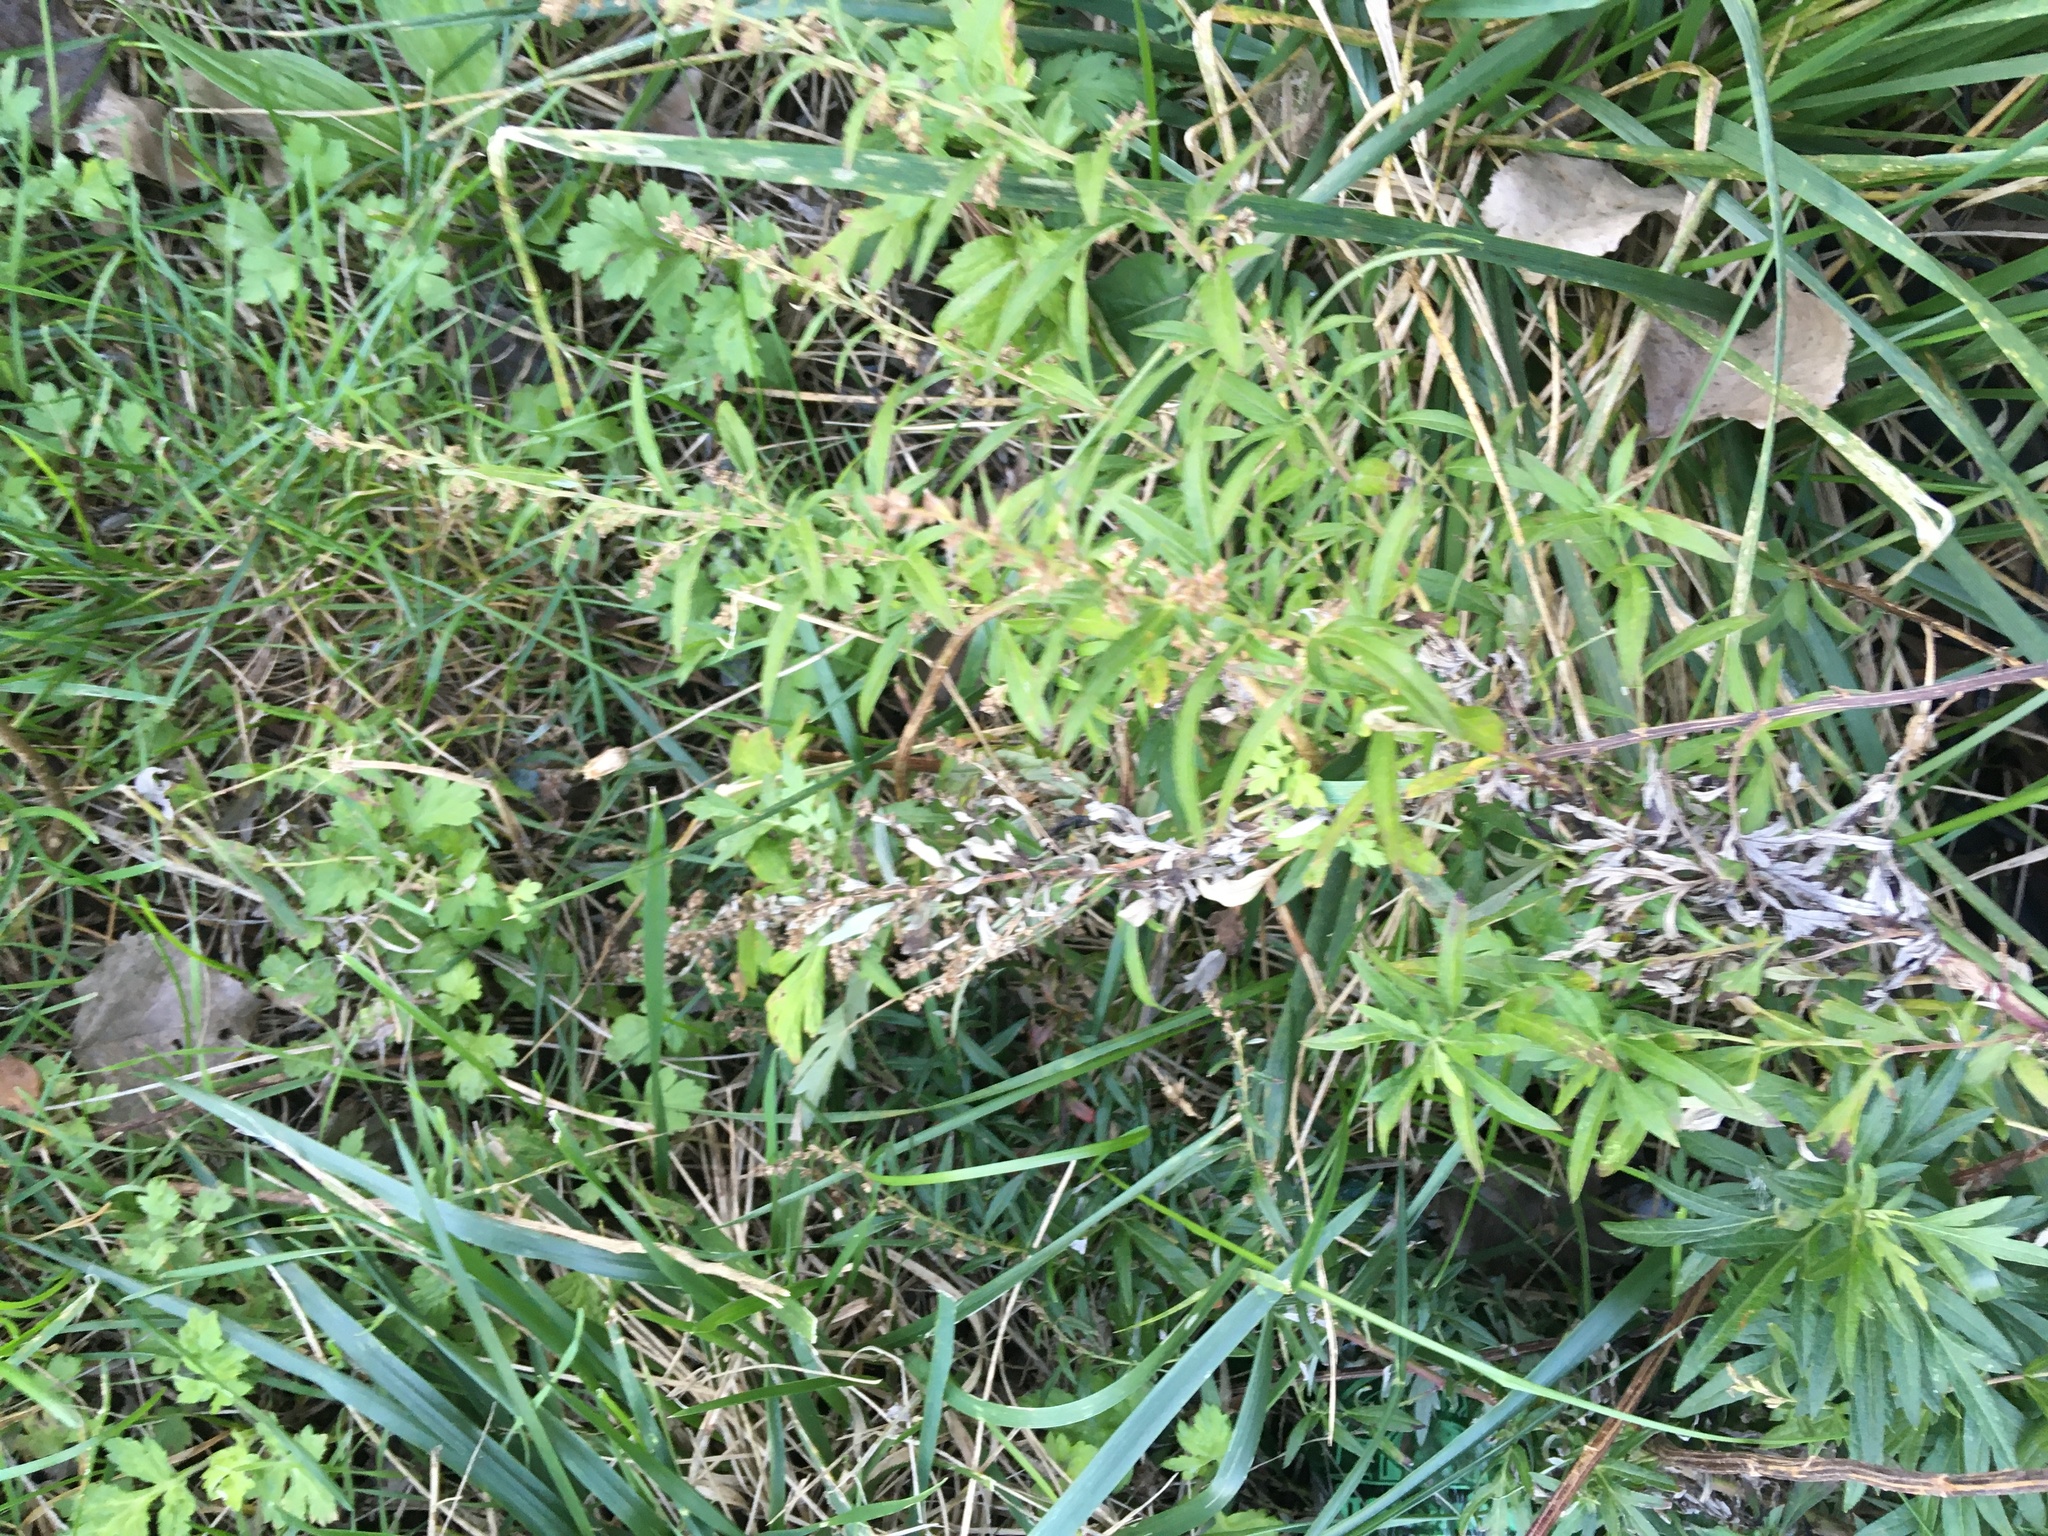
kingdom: Plantae
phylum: Tracheophyta
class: Magnoliopsida
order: Asterales
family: Asteraceae
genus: Artemisia
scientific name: Artemisia vulgaris
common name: Mugwort
